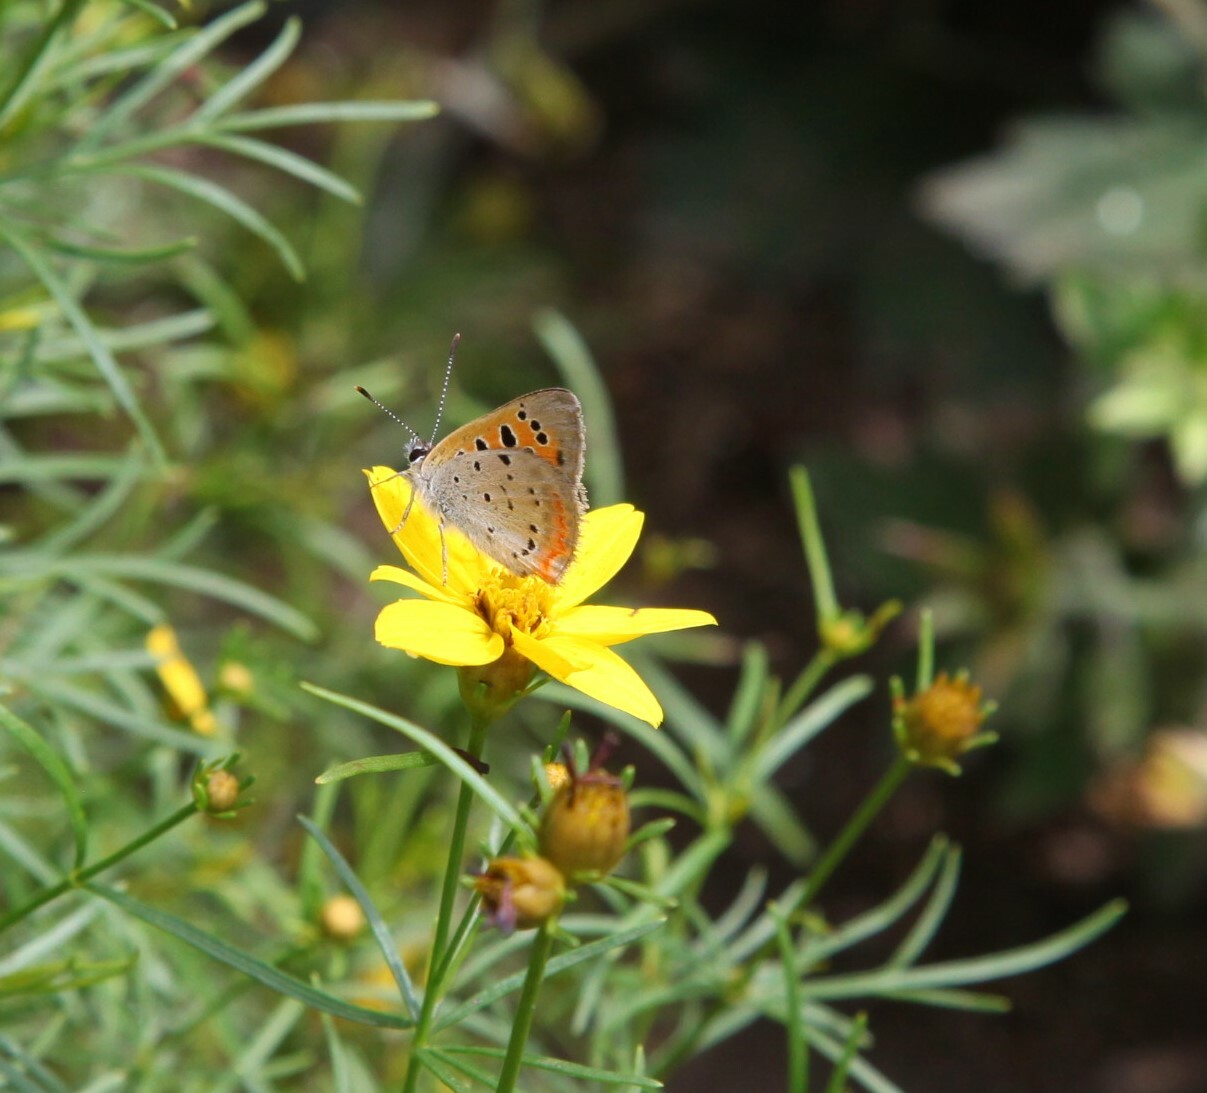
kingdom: Animalia
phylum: Arthropoda
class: Insecta
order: Lepidoptera
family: Lycaenidae
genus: Lycaena
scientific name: Lycaena hypophlaeas
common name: American copper
